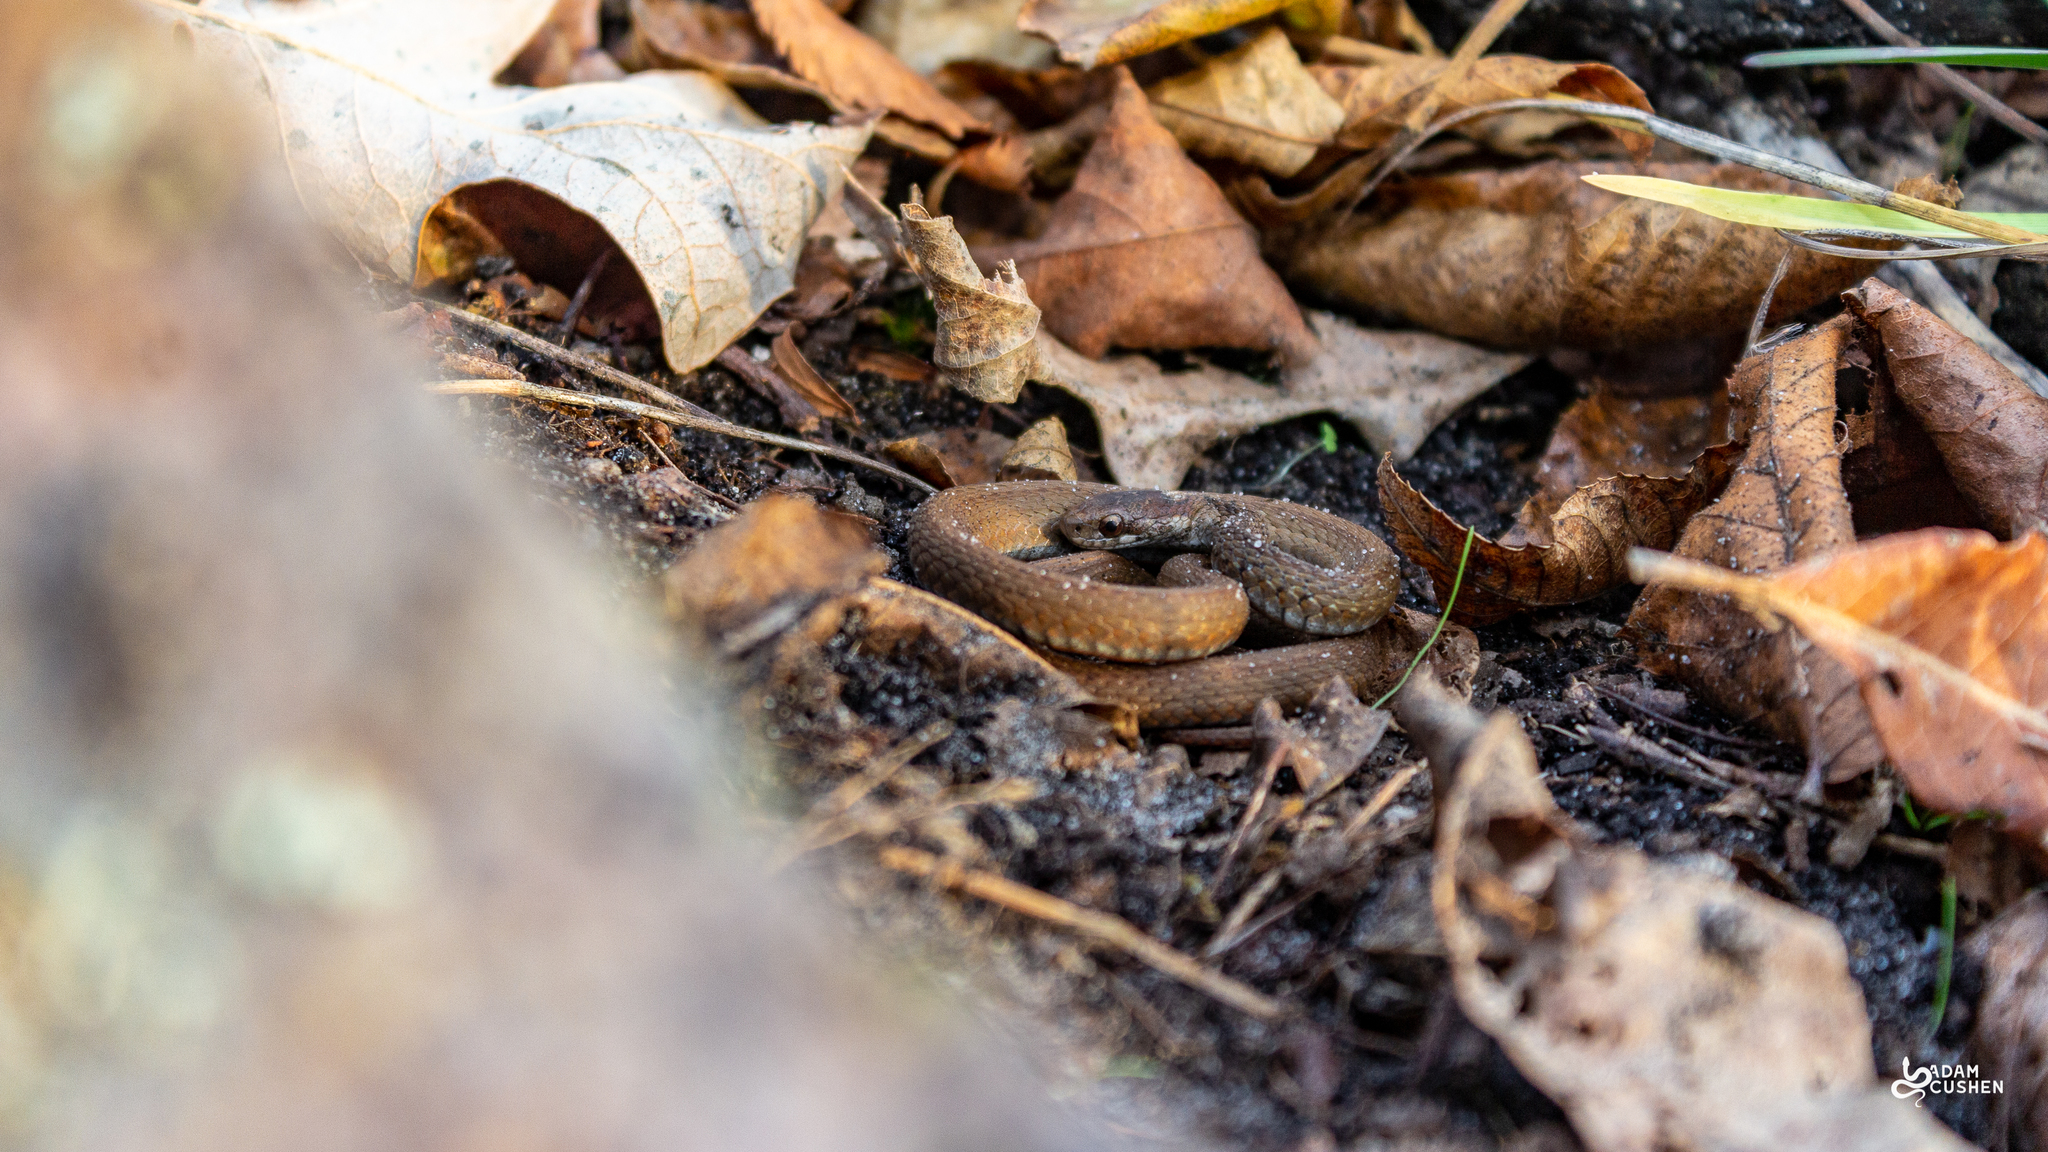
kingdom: Animalia
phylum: Chordata
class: Squamata
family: Colubridae
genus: Storeria
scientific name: Storeria occipitomaculata
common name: Redbelly snake
